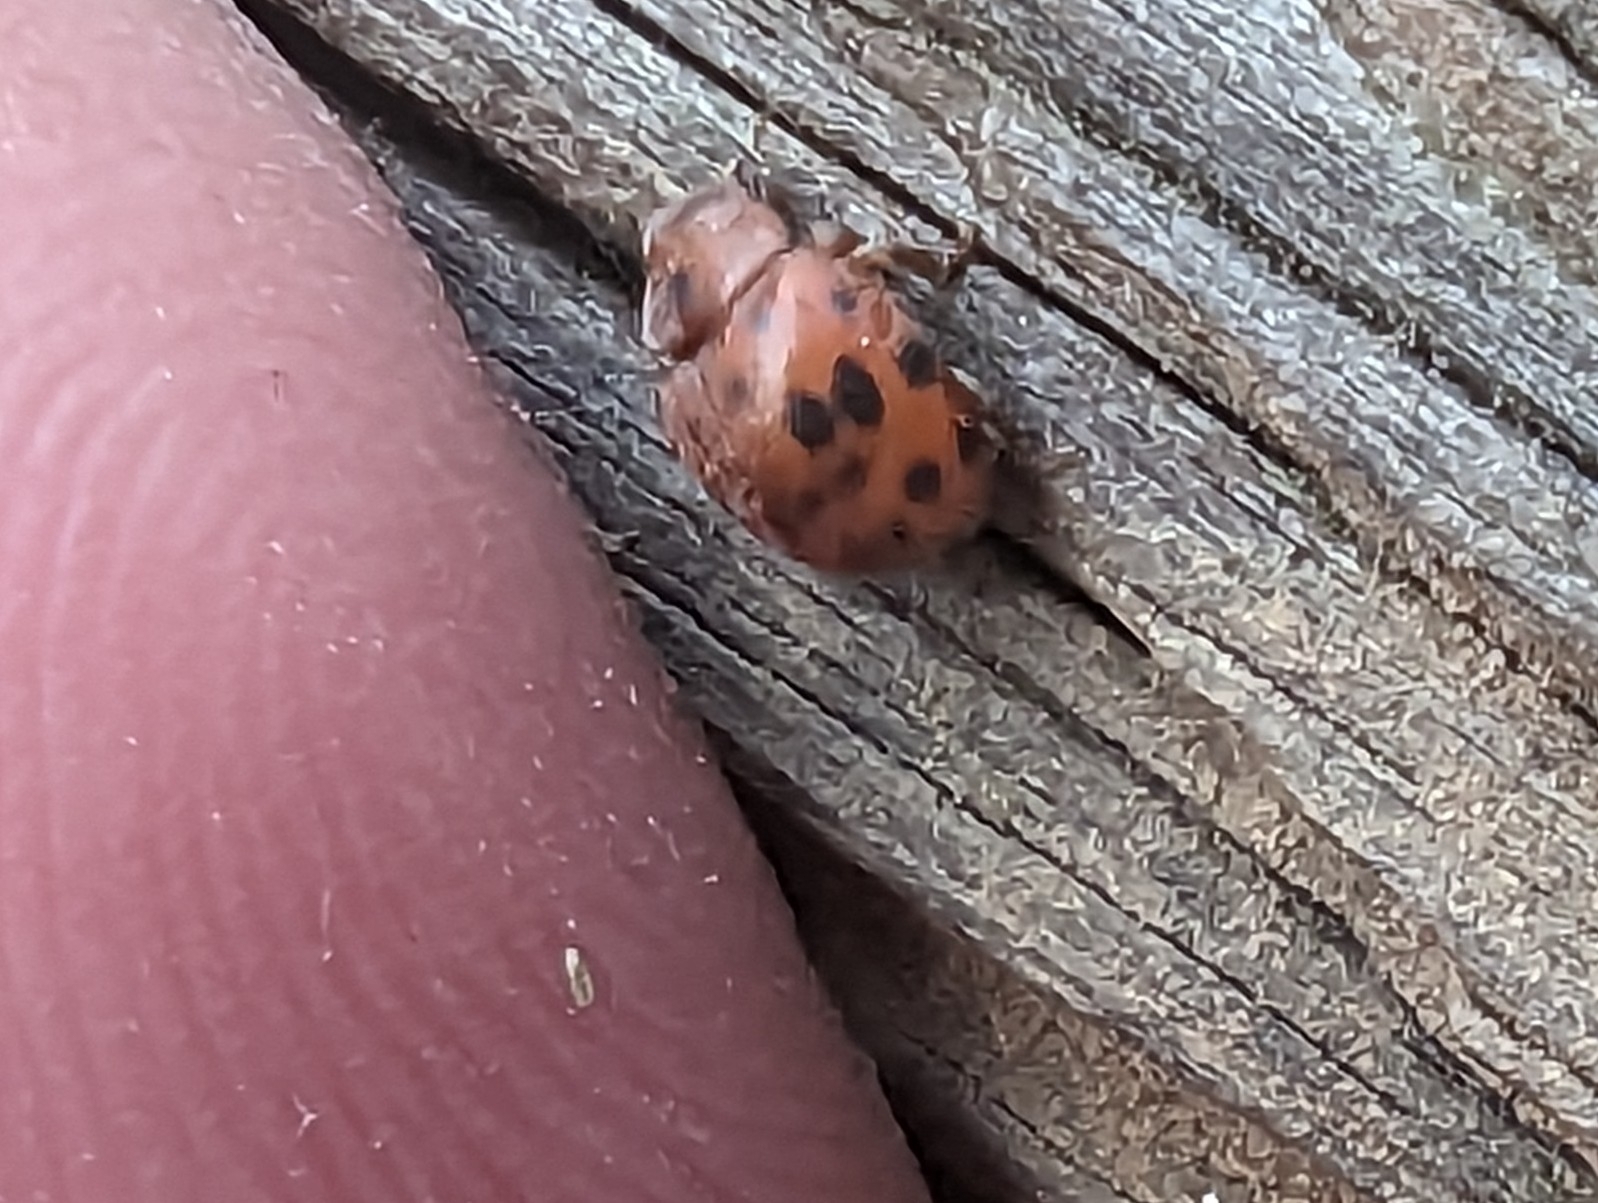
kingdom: Animalia
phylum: Arthropoda
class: Insecta
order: Coleoptera
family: Coccinellidae
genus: Subcoccinella
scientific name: Subcoccinella vigintiquatuorpunctata
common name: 24-spot ladybird
